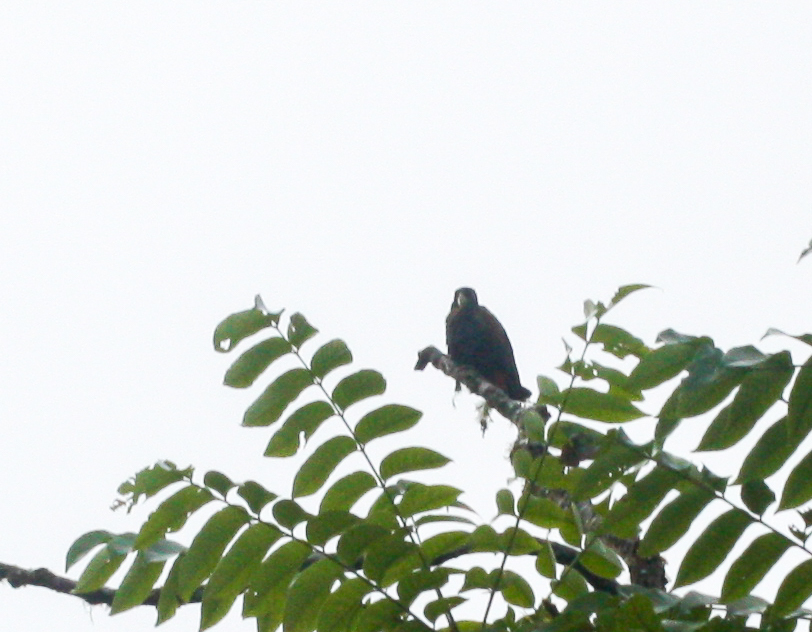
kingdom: Animalia
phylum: Chordata
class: Aves
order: Psittaciformes
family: Psittacidae
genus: Pionus
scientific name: Pionus chalcopterus
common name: Bronze-winged parrot
